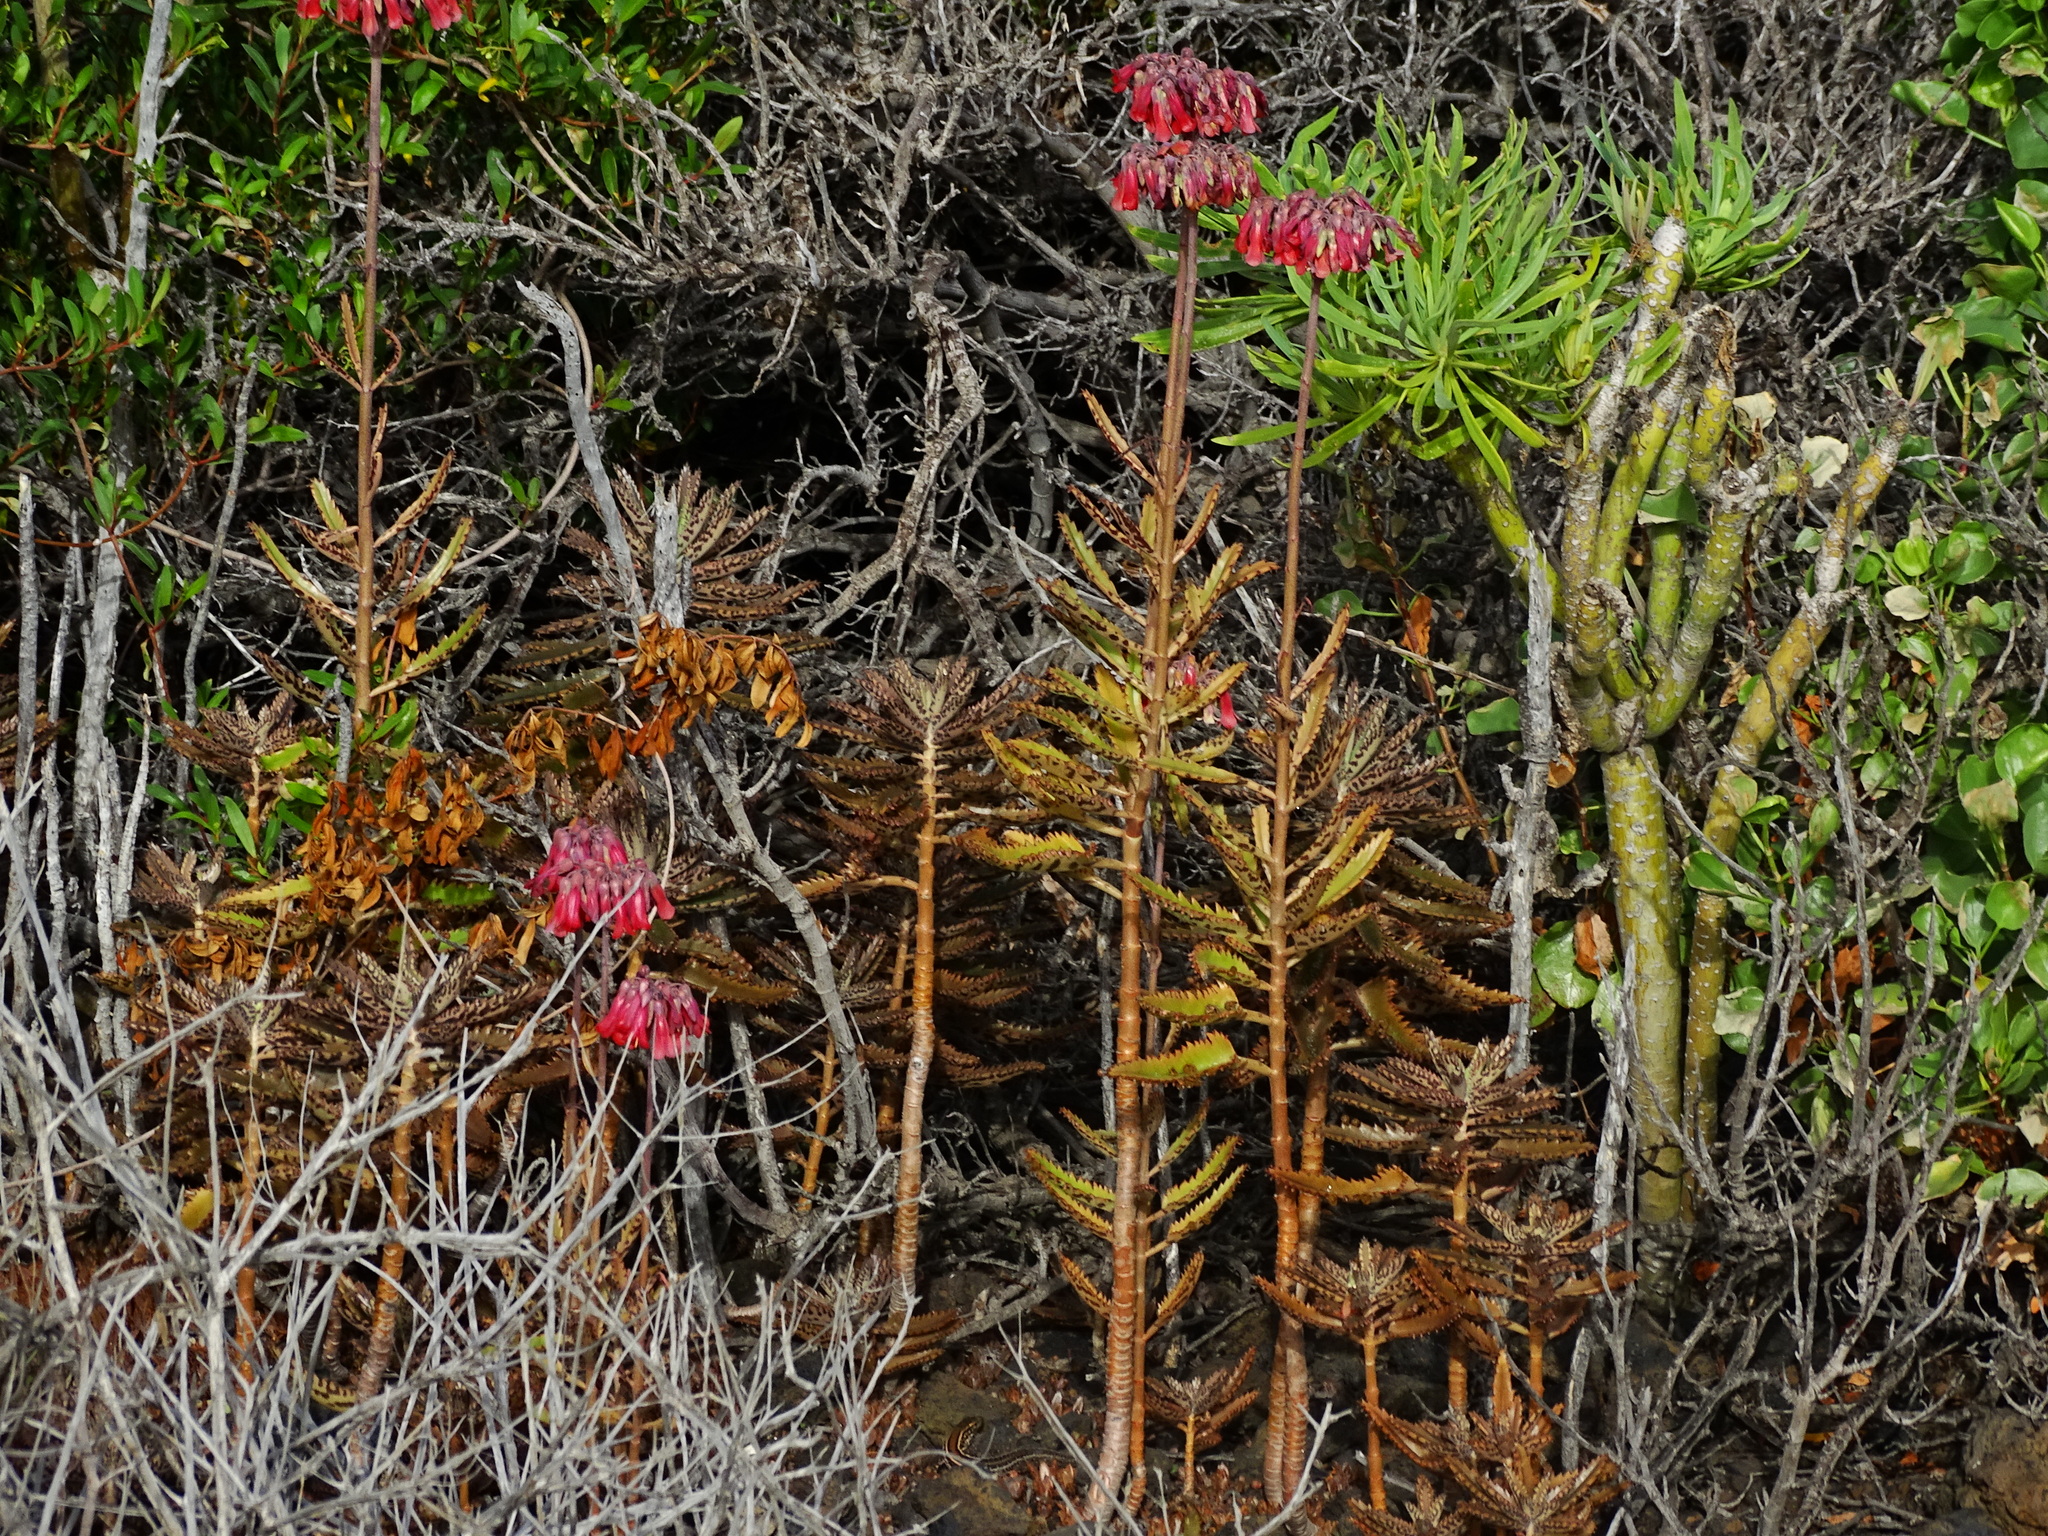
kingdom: Plantae
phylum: Tracheophyta
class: Magnoliopsida
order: Saxifragales
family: Crassulaceae
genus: Kalanchoe
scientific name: Kalanchoe houghtonii
